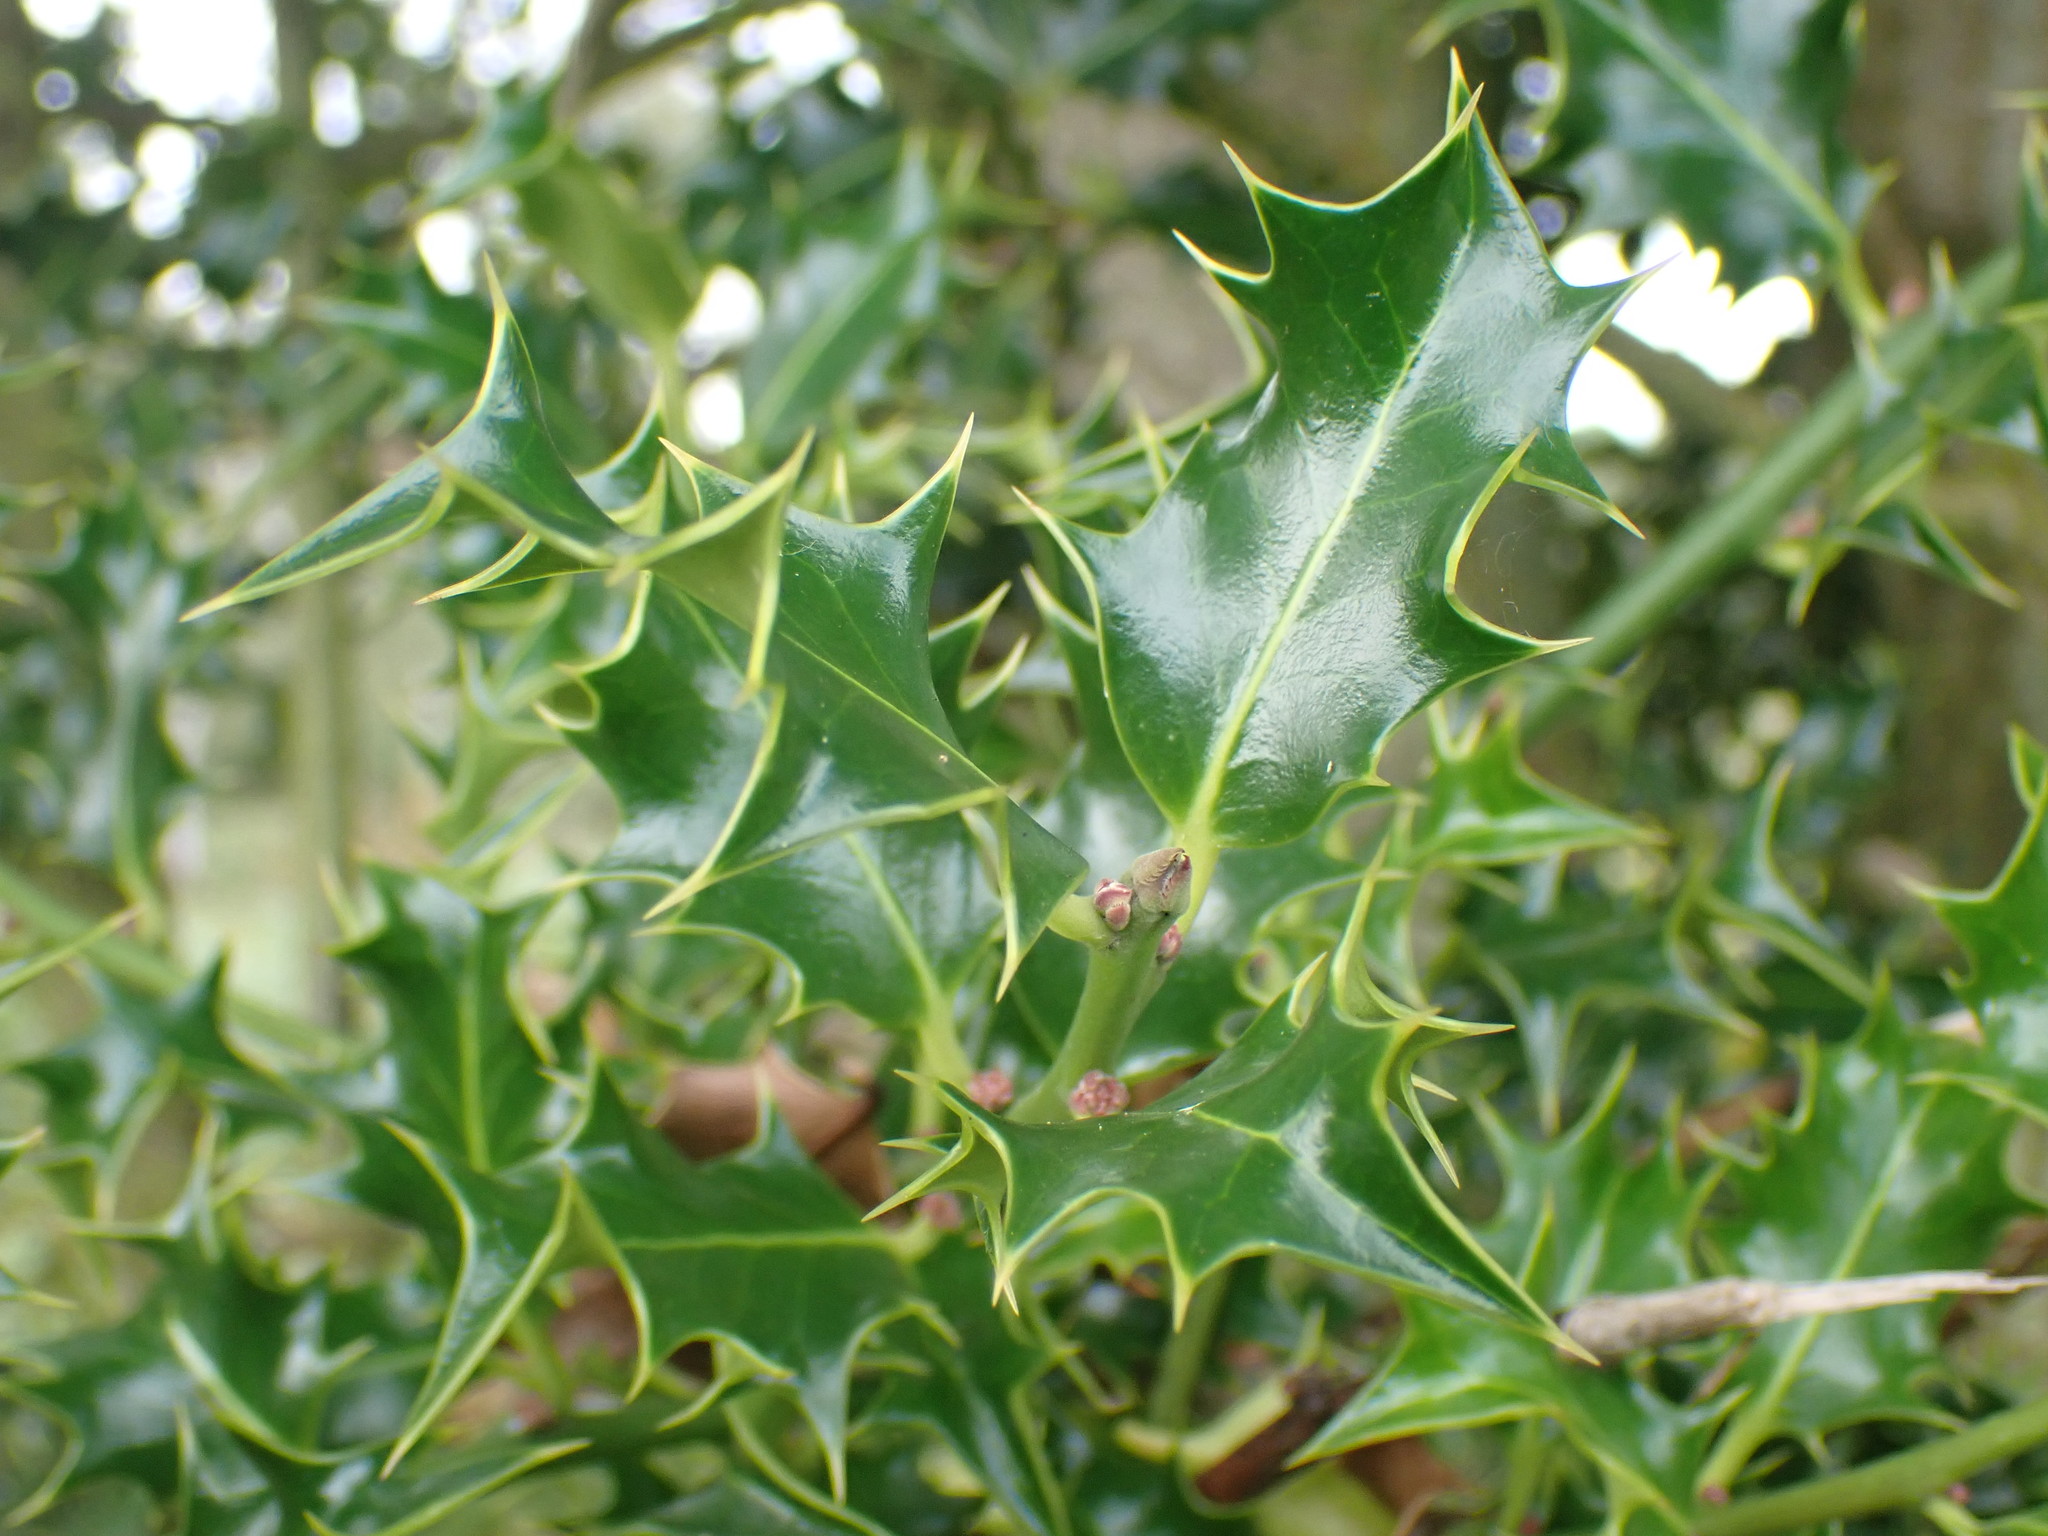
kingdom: Plantae
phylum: Tracheophyta
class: Magnoliopsida
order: Aquifoliales
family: Aquifoliaceae
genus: Ilex
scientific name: Ilex aquifolium
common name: English holly
